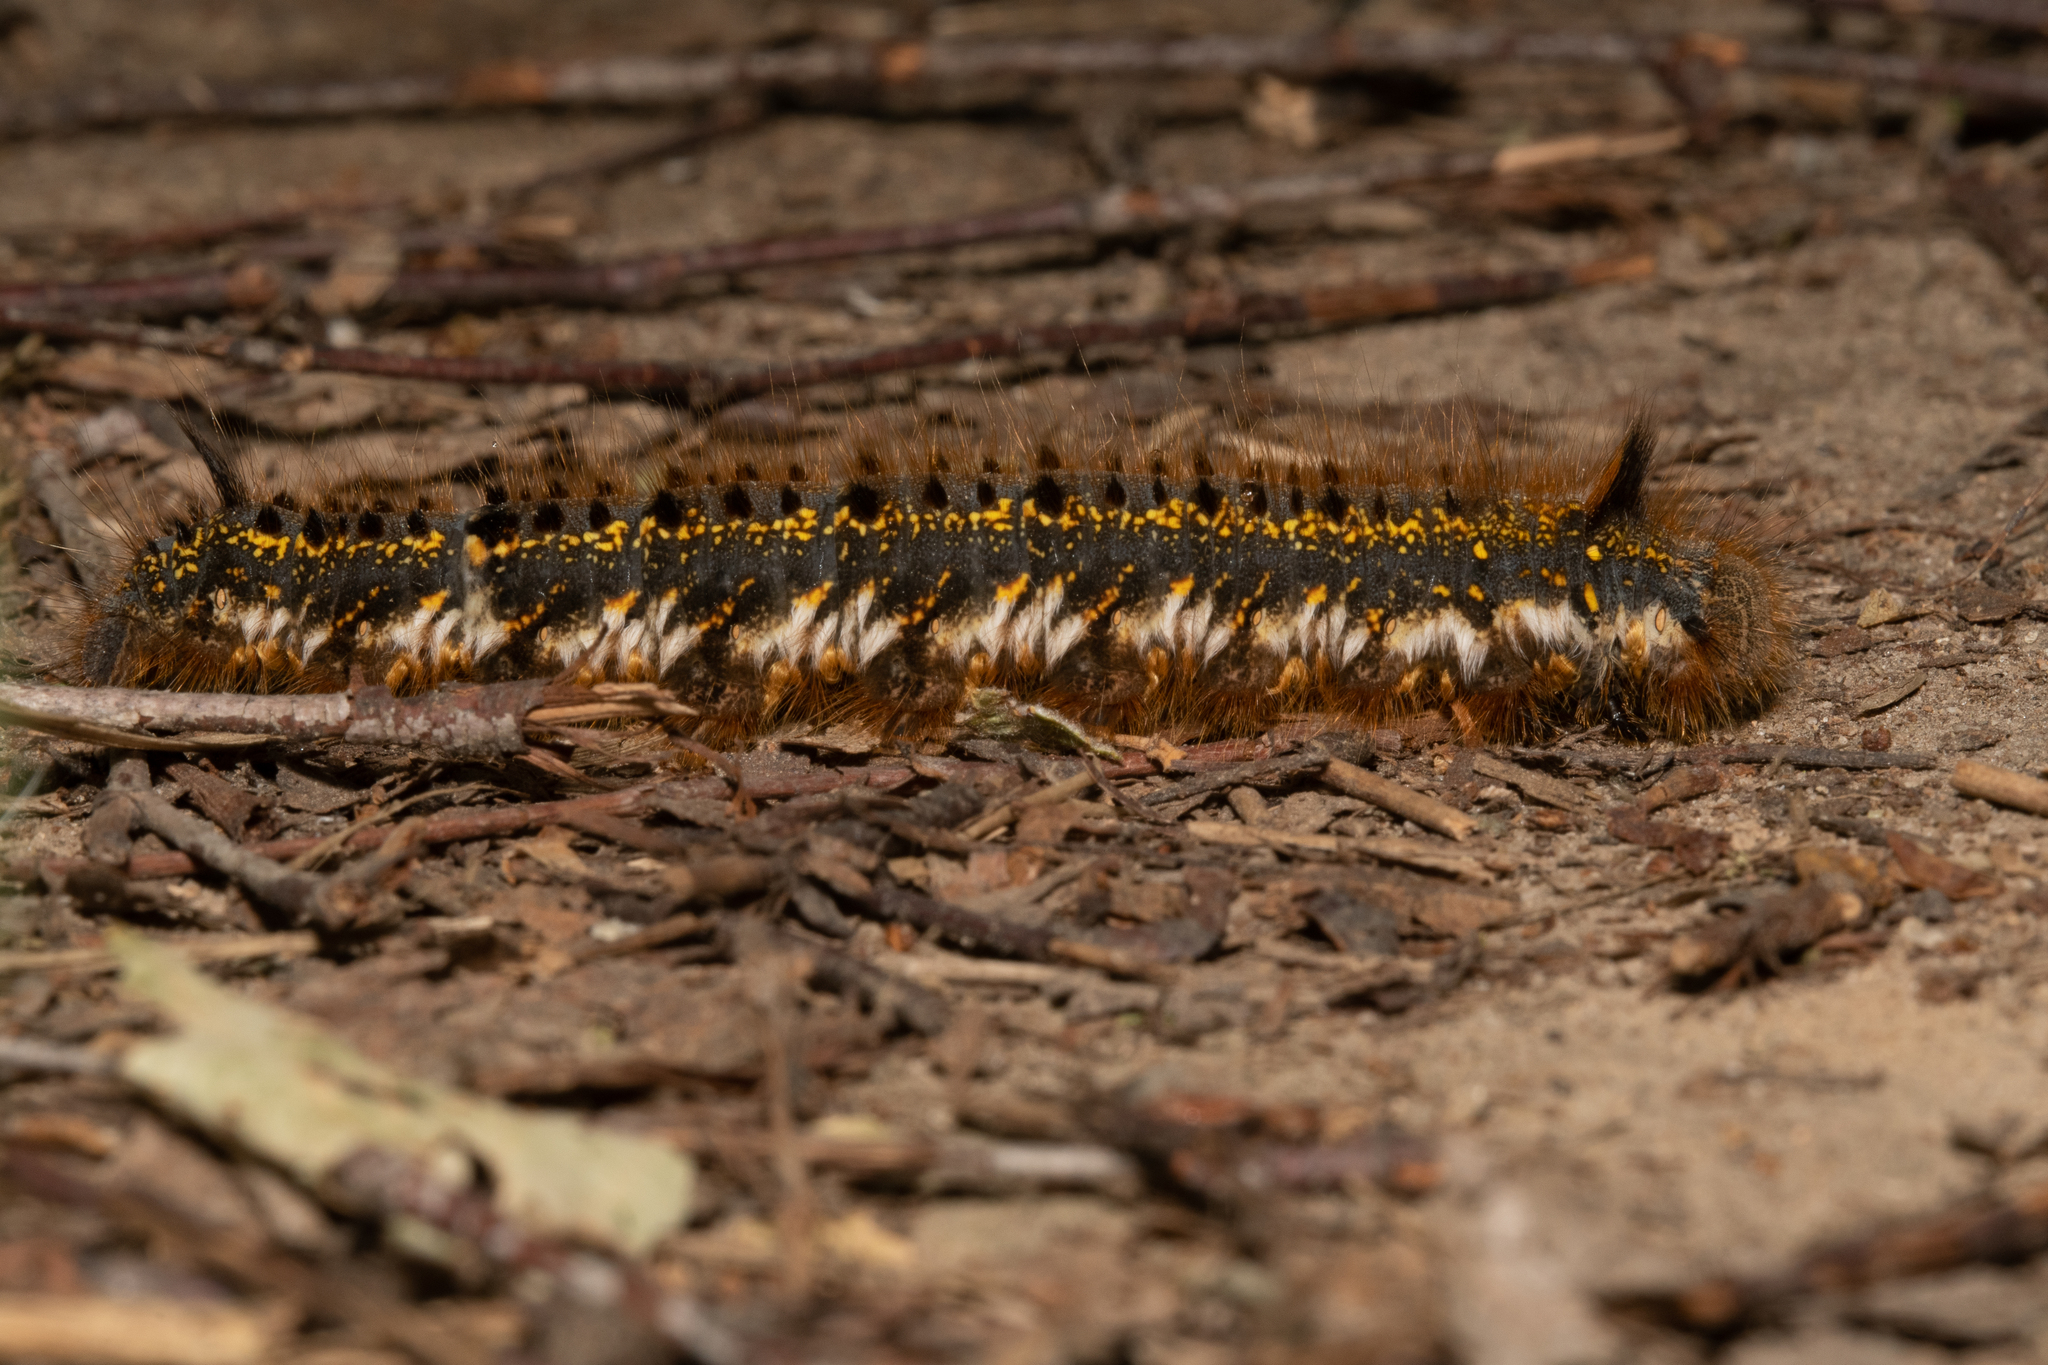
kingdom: Animalia
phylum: Arthropoda
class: Insecta
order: Lepidoptera
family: Lasiocampidae
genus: Euthrix
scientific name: Euthrix potatoria
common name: Drinker
